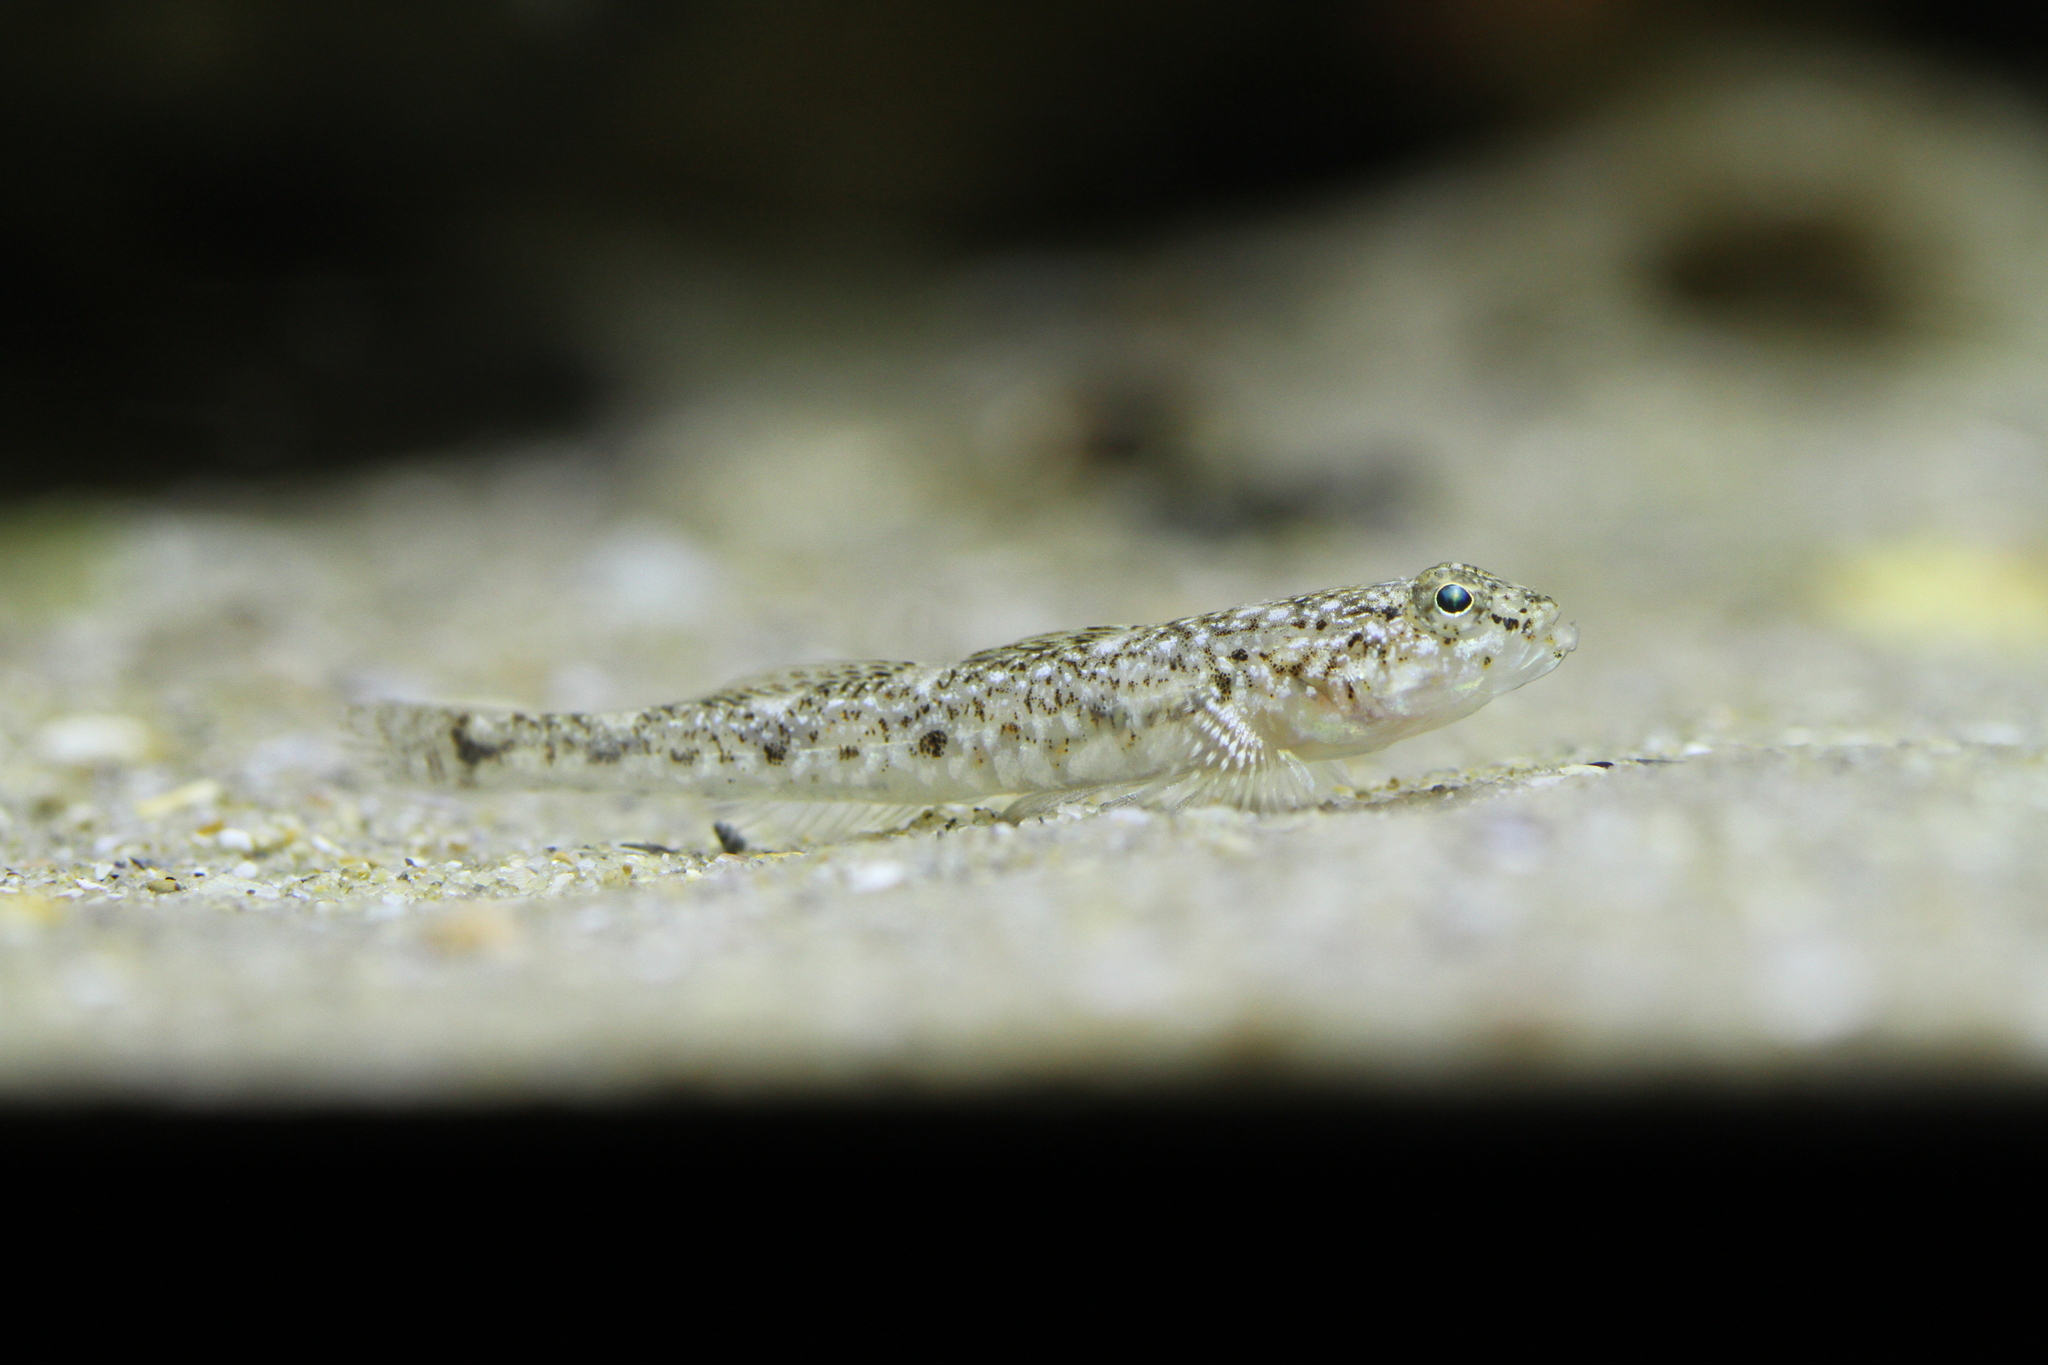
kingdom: Animalia
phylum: Chordata
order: Perciformes
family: Gobiidae
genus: Pomatoschistus
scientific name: Pomatoschistus marmoratus
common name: Marbled goby
